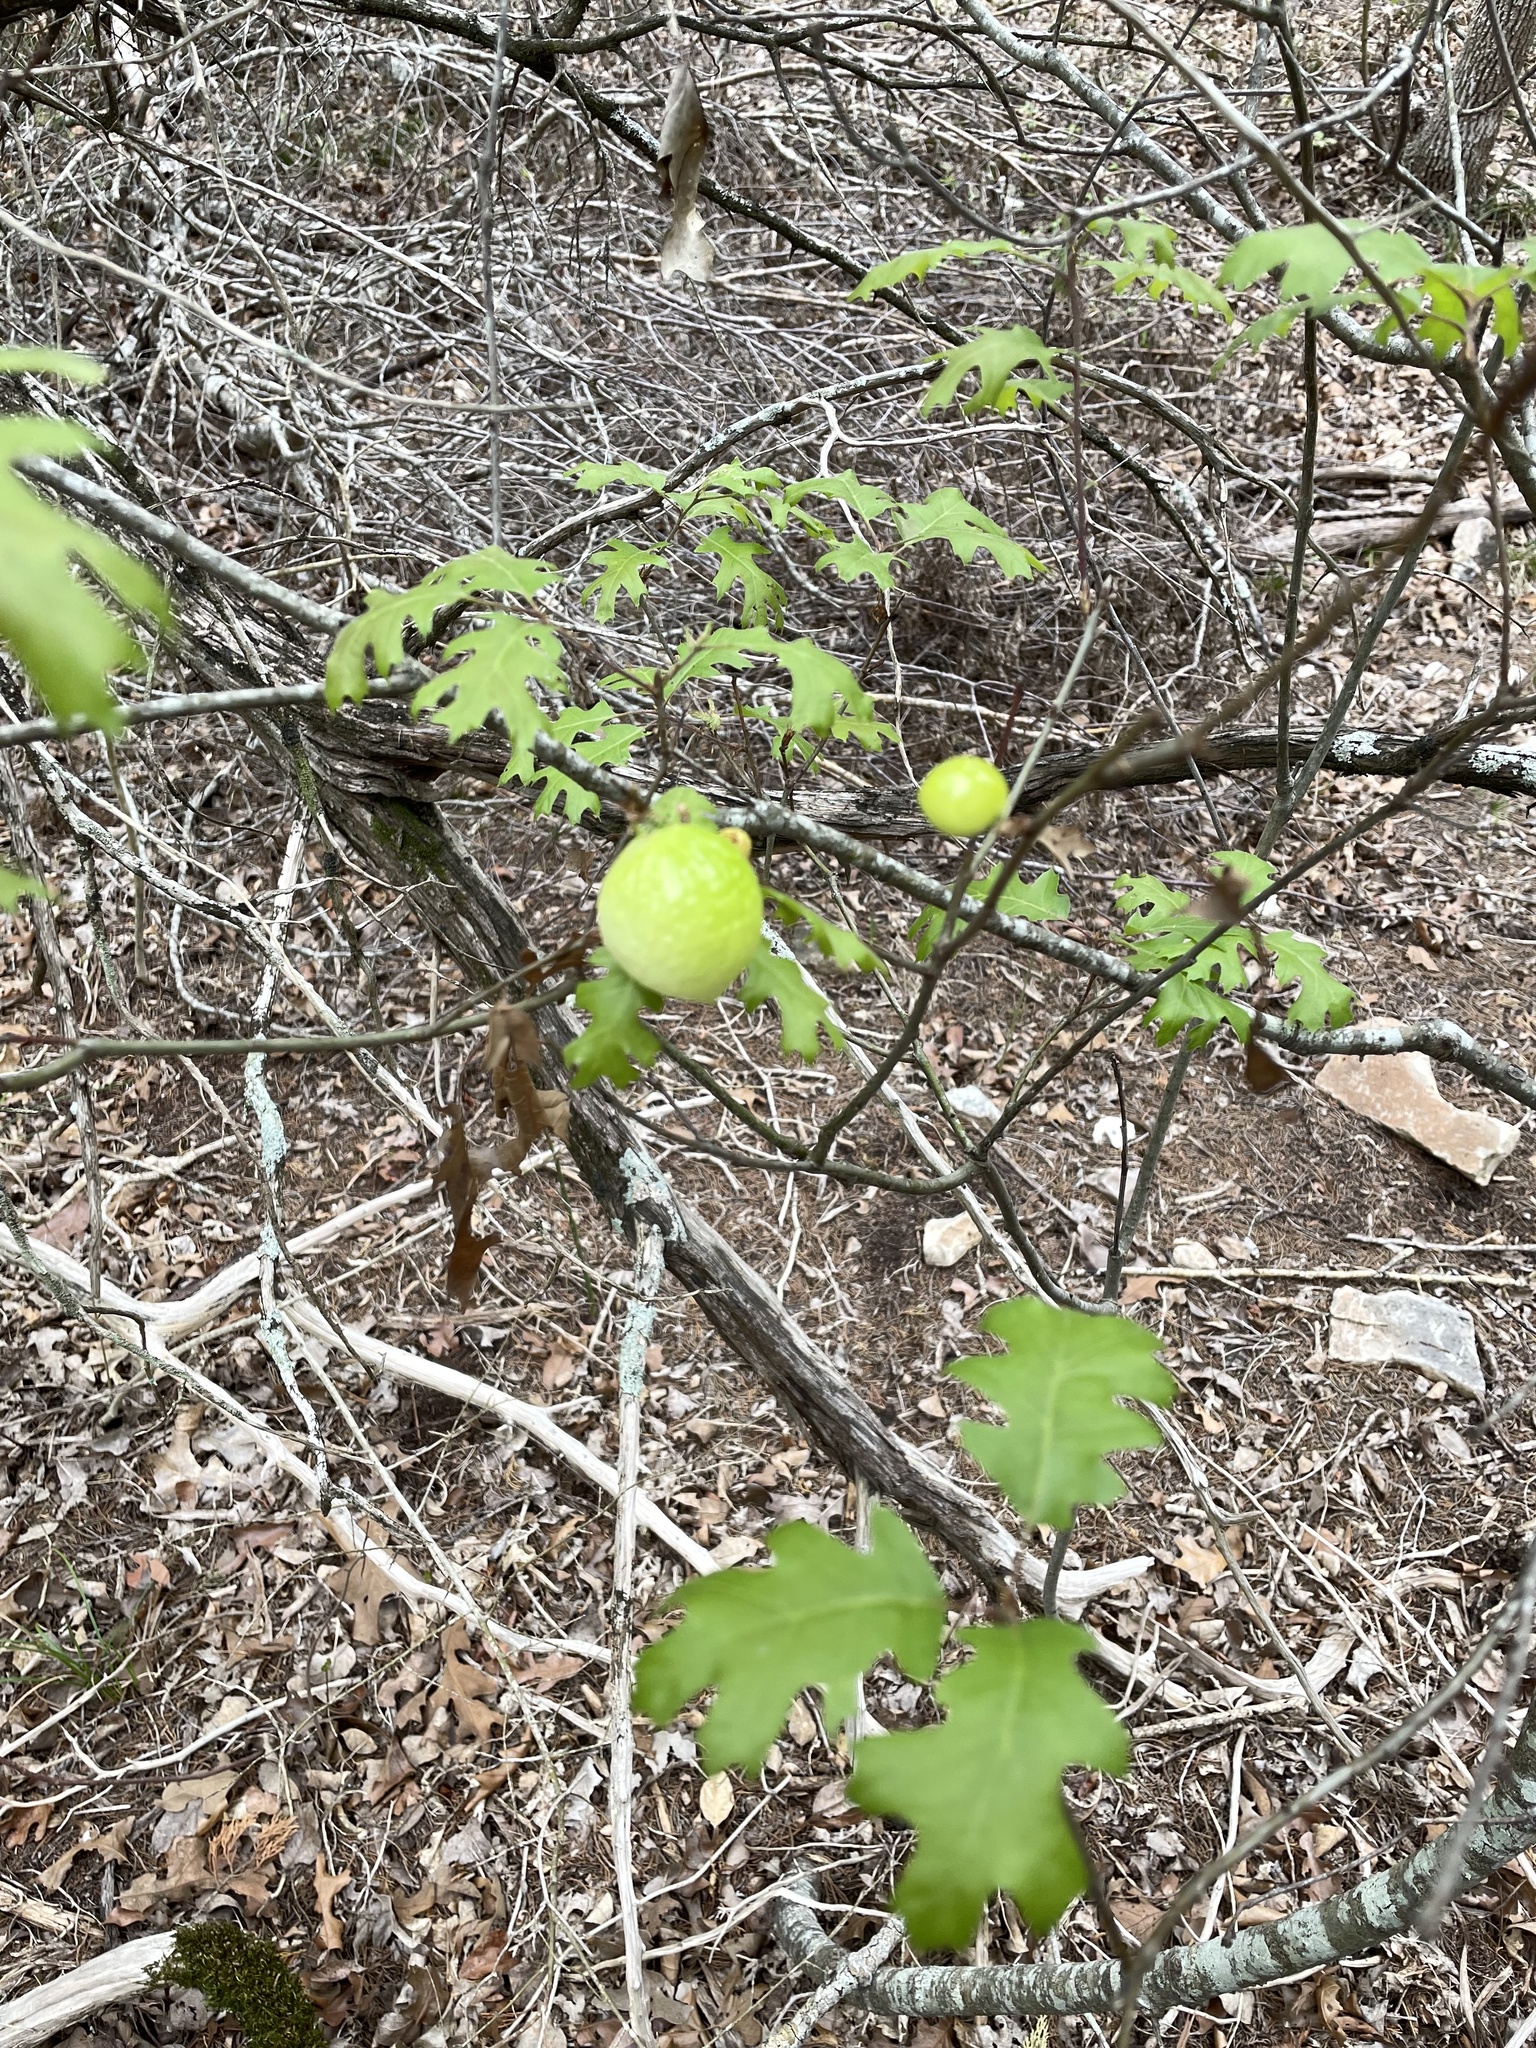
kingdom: Animalia
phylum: Arthropoda
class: Insecta
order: Hymenoptera
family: Cynipidae
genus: Amphibolips
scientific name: Amphibolips
